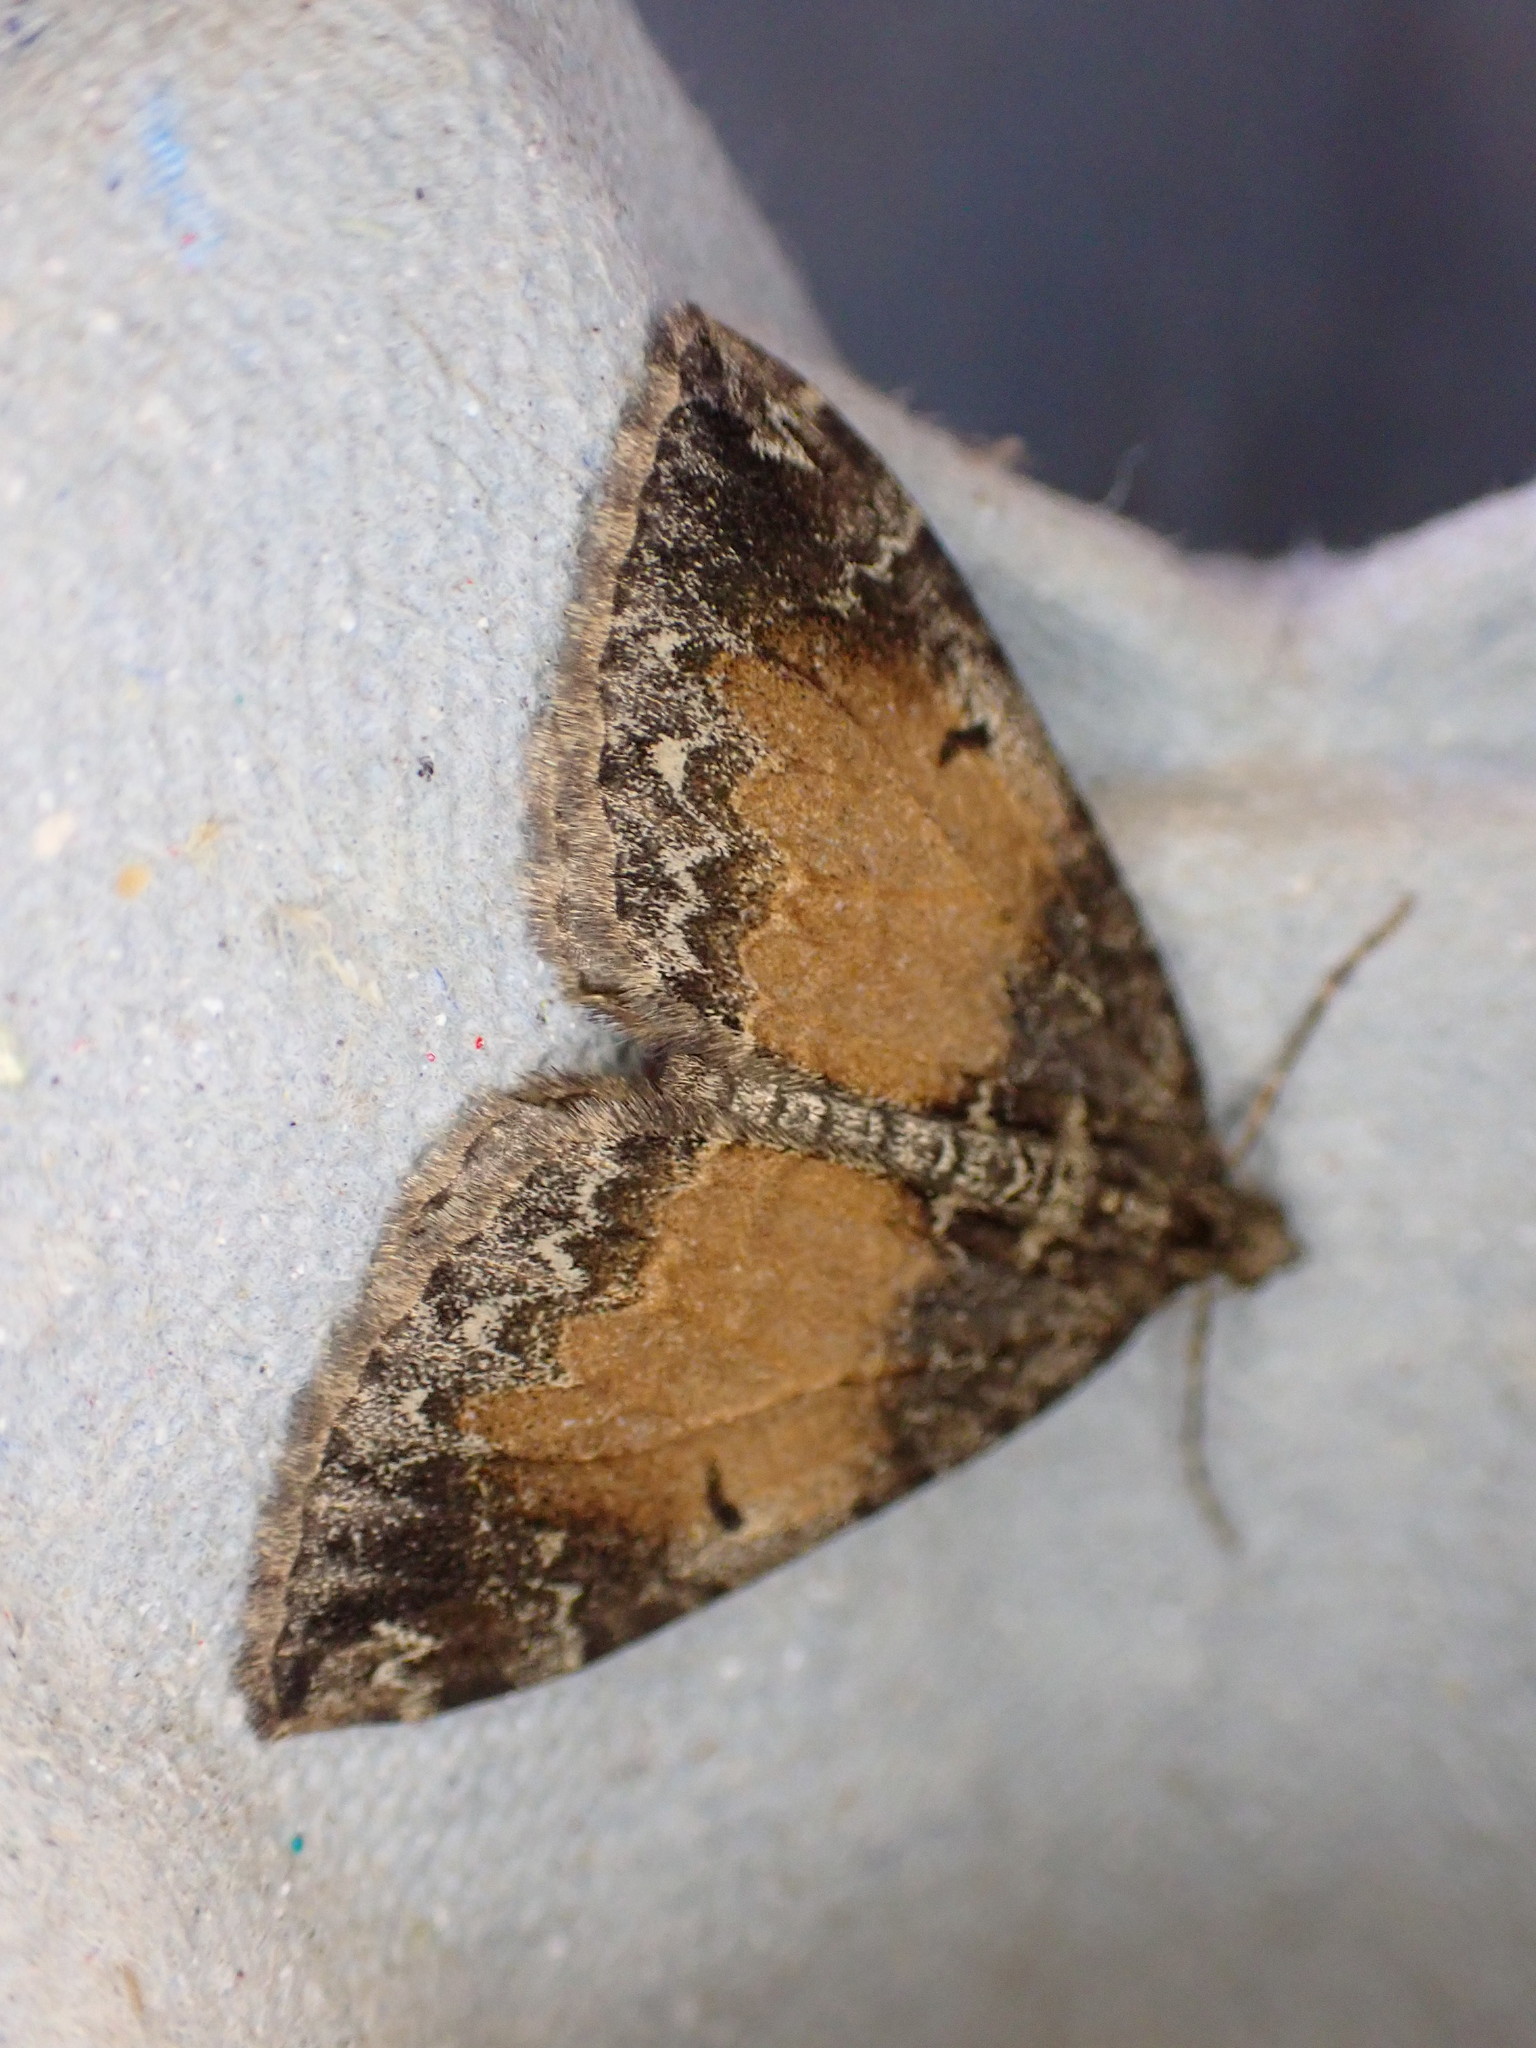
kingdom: Animalia
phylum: Arthropoda
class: Insecta
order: Lepidoptera
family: Geometridae
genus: Dysstroma
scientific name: Dysstroma truncata
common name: Common marbled carpet
